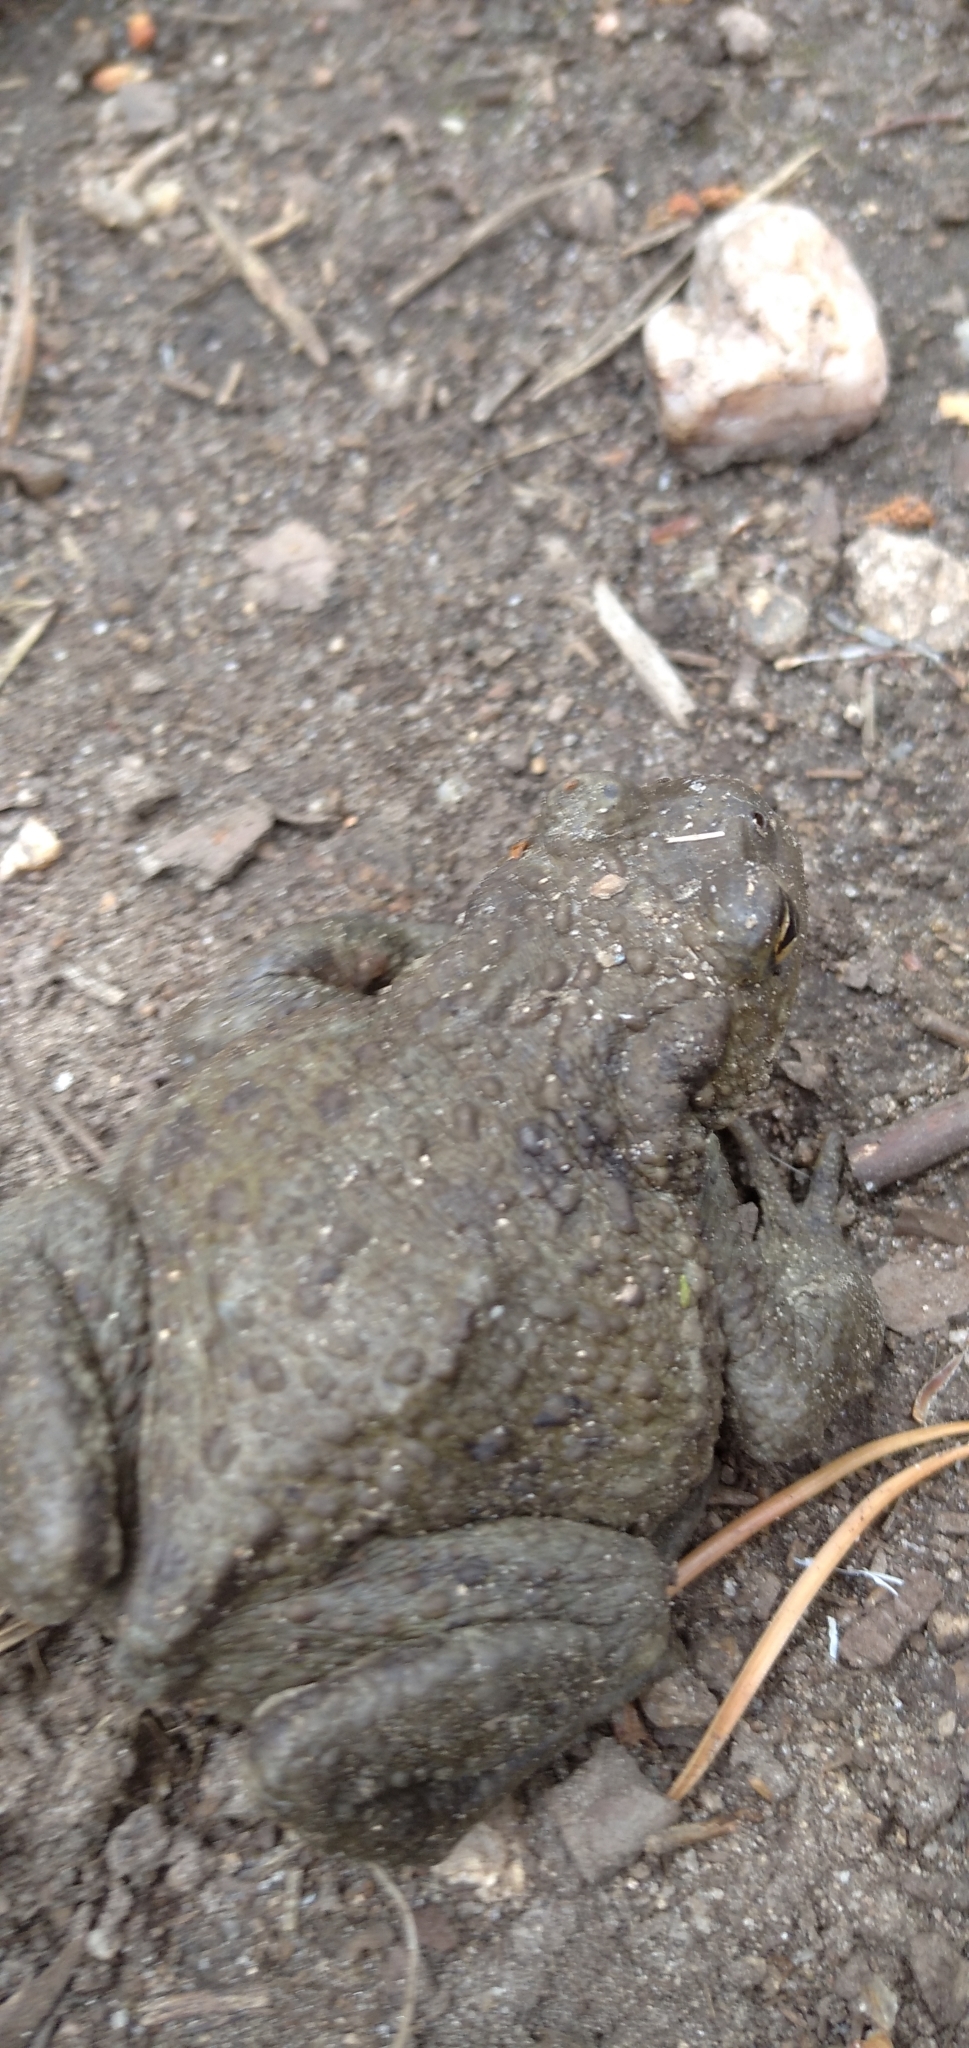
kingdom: Animalia
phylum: Chordata
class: Amphibia
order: Anura
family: Bufonidae
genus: Bufo
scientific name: Bufo bufo
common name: Common toad
